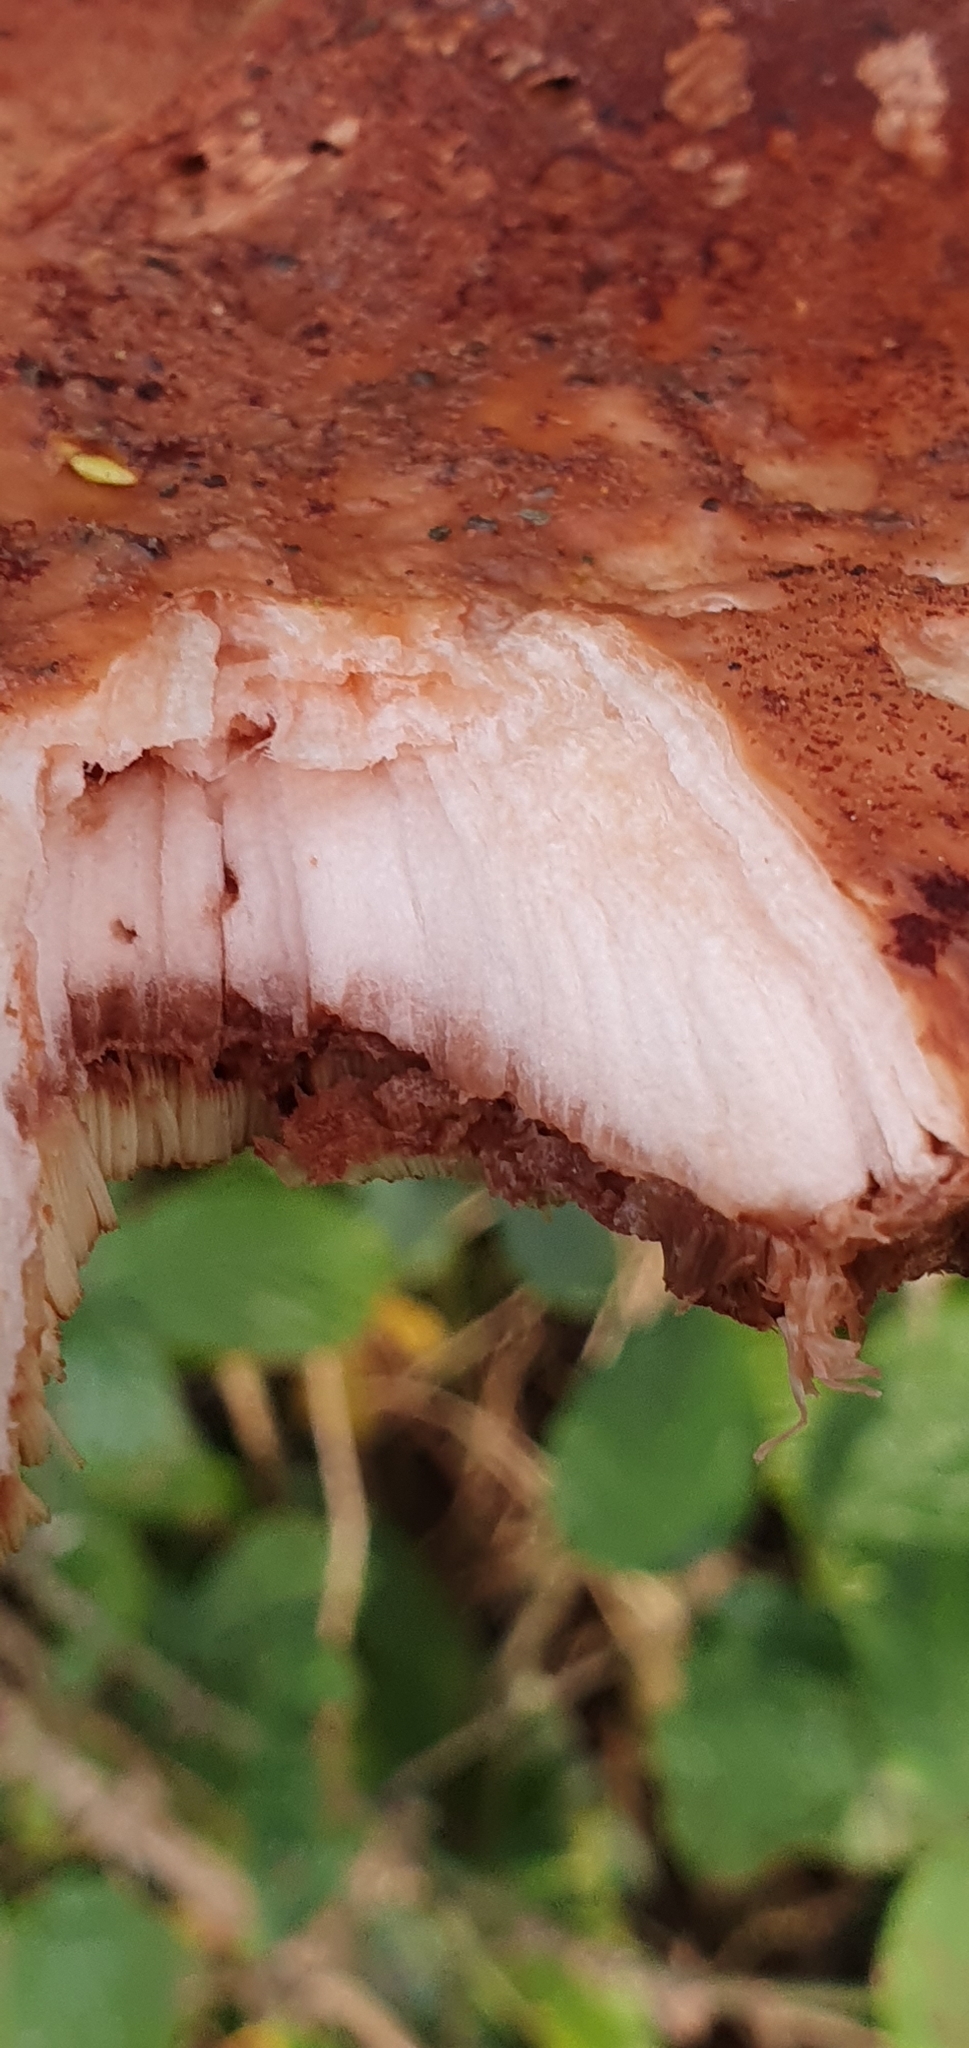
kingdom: Fungi
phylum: Basidiomycota
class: Agaricomycetes
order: Agaricales
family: Fistulinaceae
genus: Fistulina
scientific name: Fistulina hepatica
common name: Beef-steak fungus
